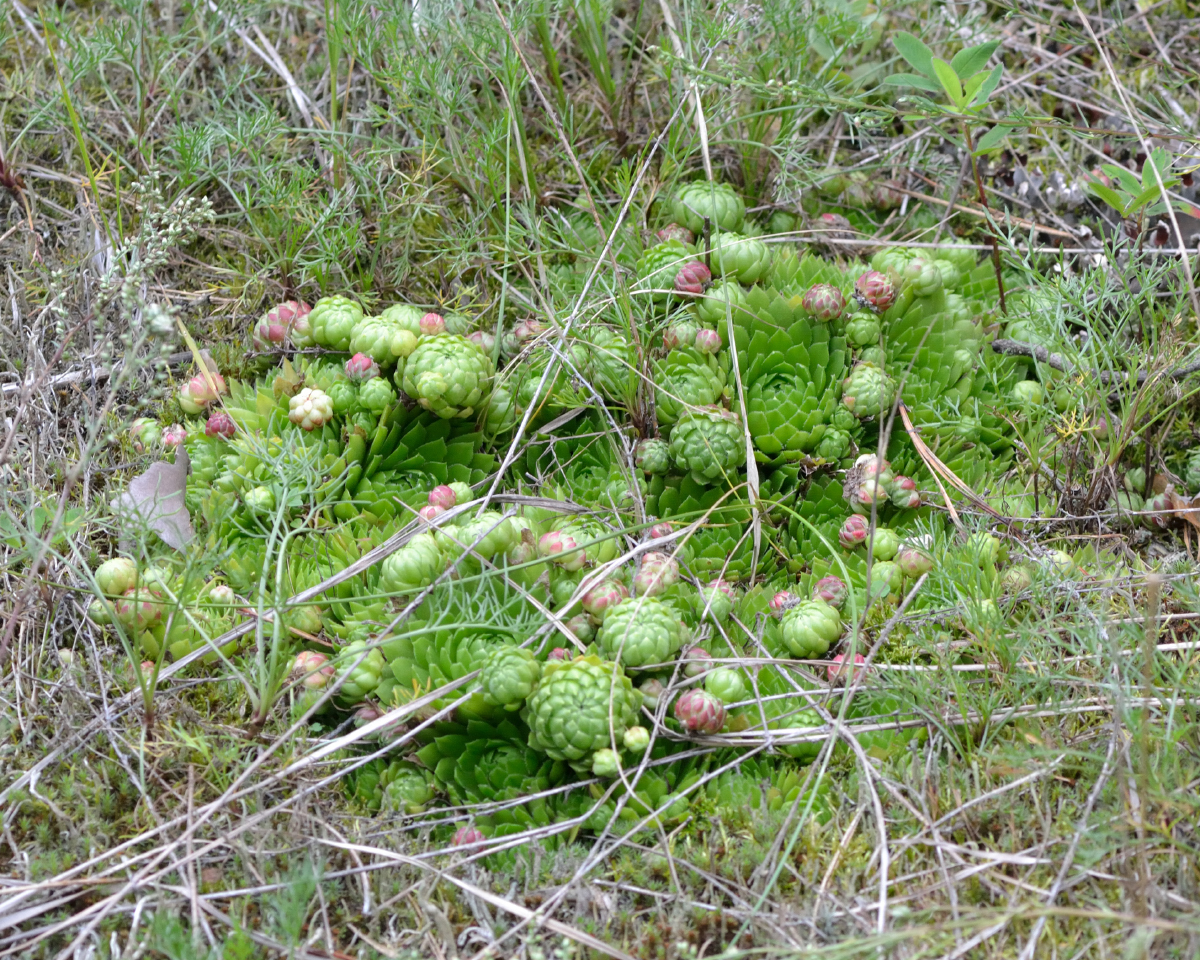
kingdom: Plantae
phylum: Tracheophyta
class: Magnoliopsida
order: Saxifragales
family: Crassulaceae
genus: Sempervivum
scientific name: Sempervivum globiferum
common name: Rolling hen-and-chicks
